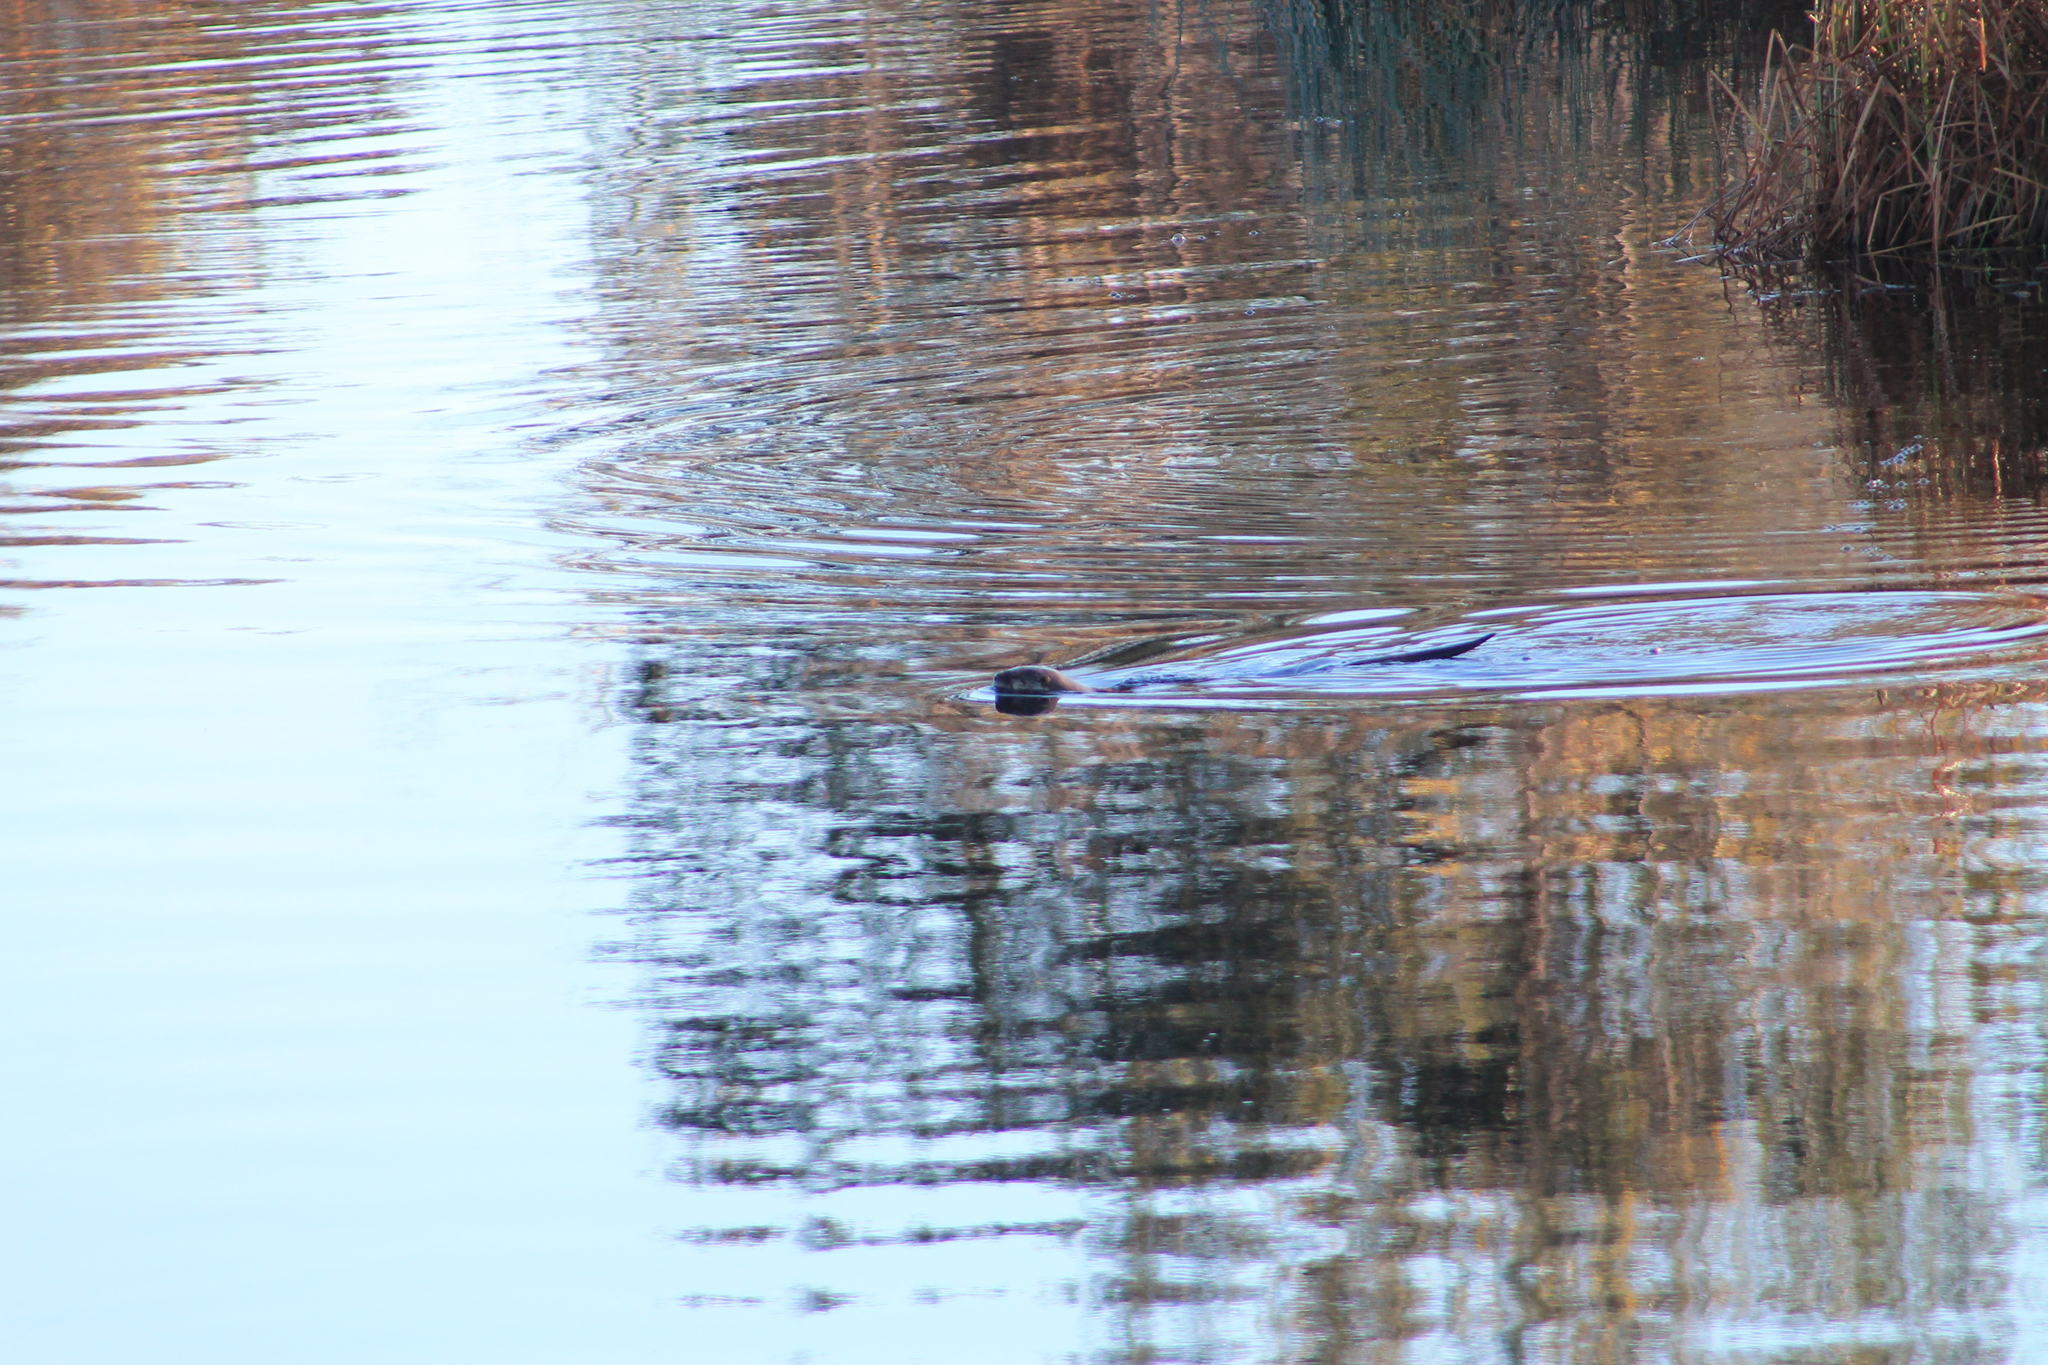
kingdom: Animalia
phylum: Chordata
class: Mammalia
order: Carnivora
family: Mustelidae
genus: Lontra
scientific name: Lontra canadensis
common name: North american river otter
